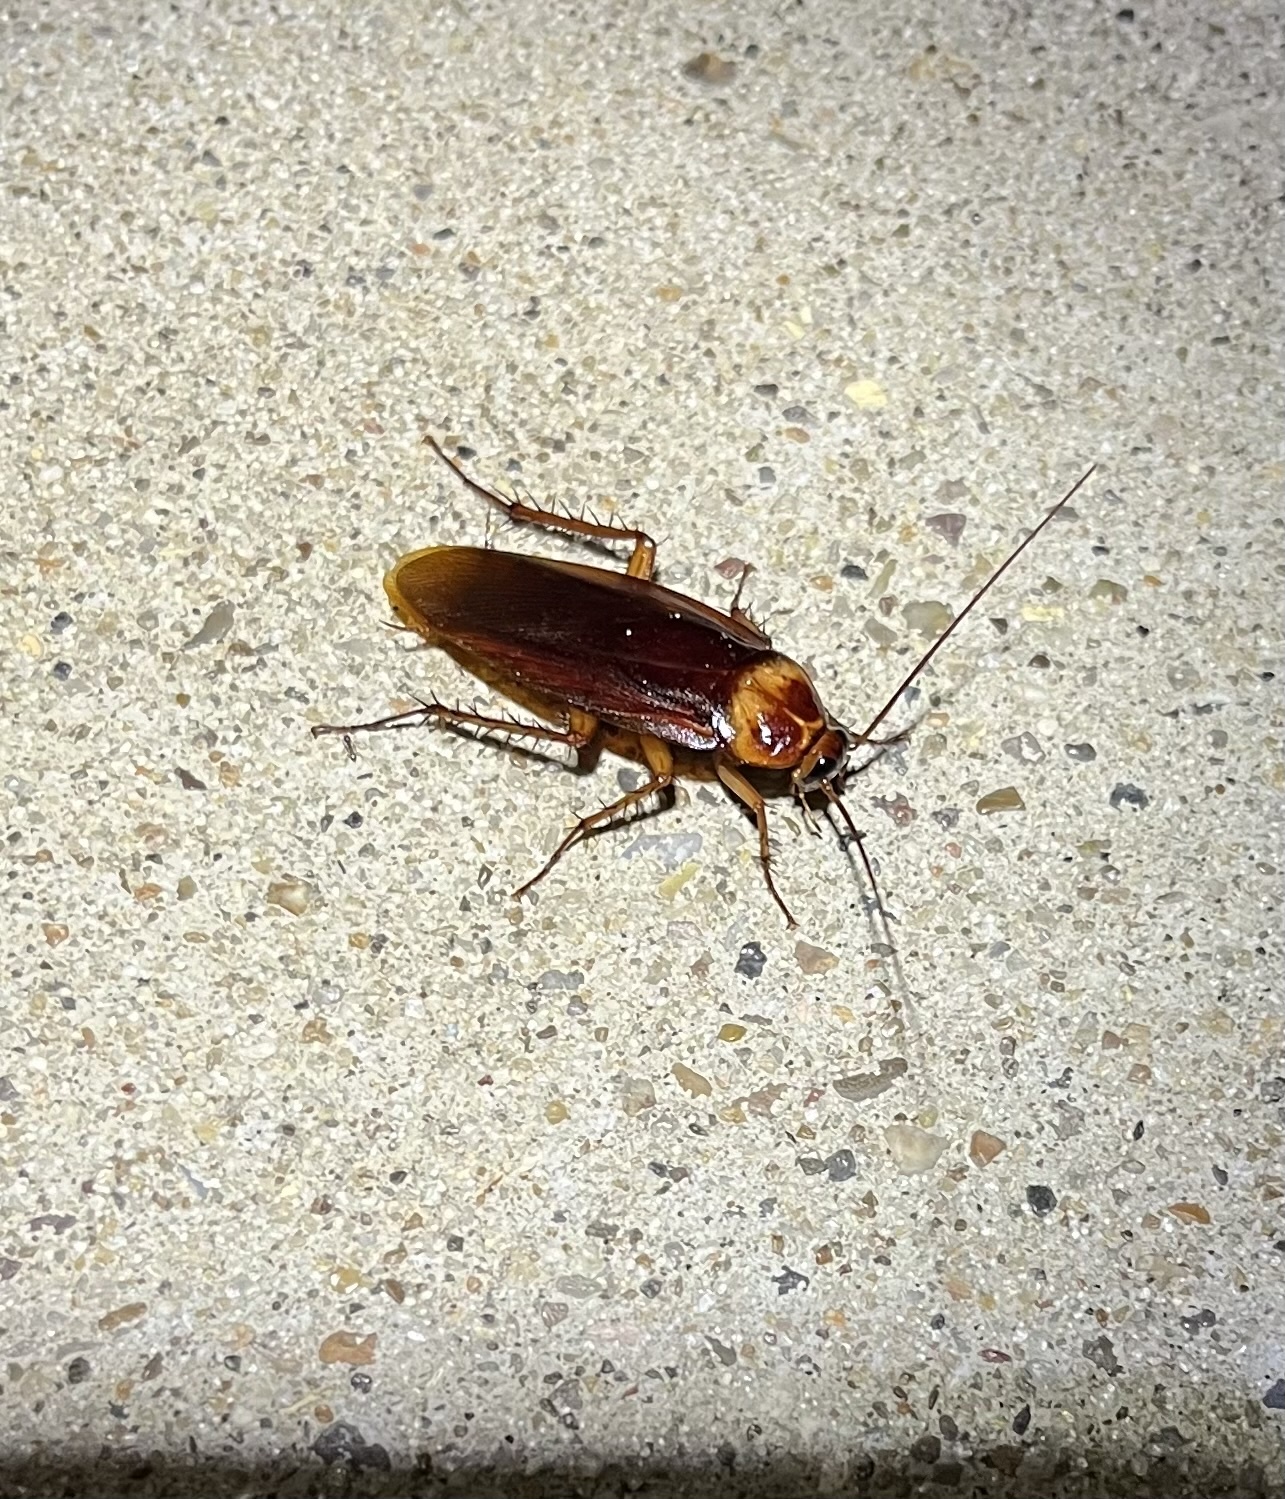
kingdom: Animalia
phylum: Arthropoda
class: Insecta
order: Blattodea
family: Blattidae
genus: Periplaneta
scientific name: Periplaneta americana
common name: American cockroach
